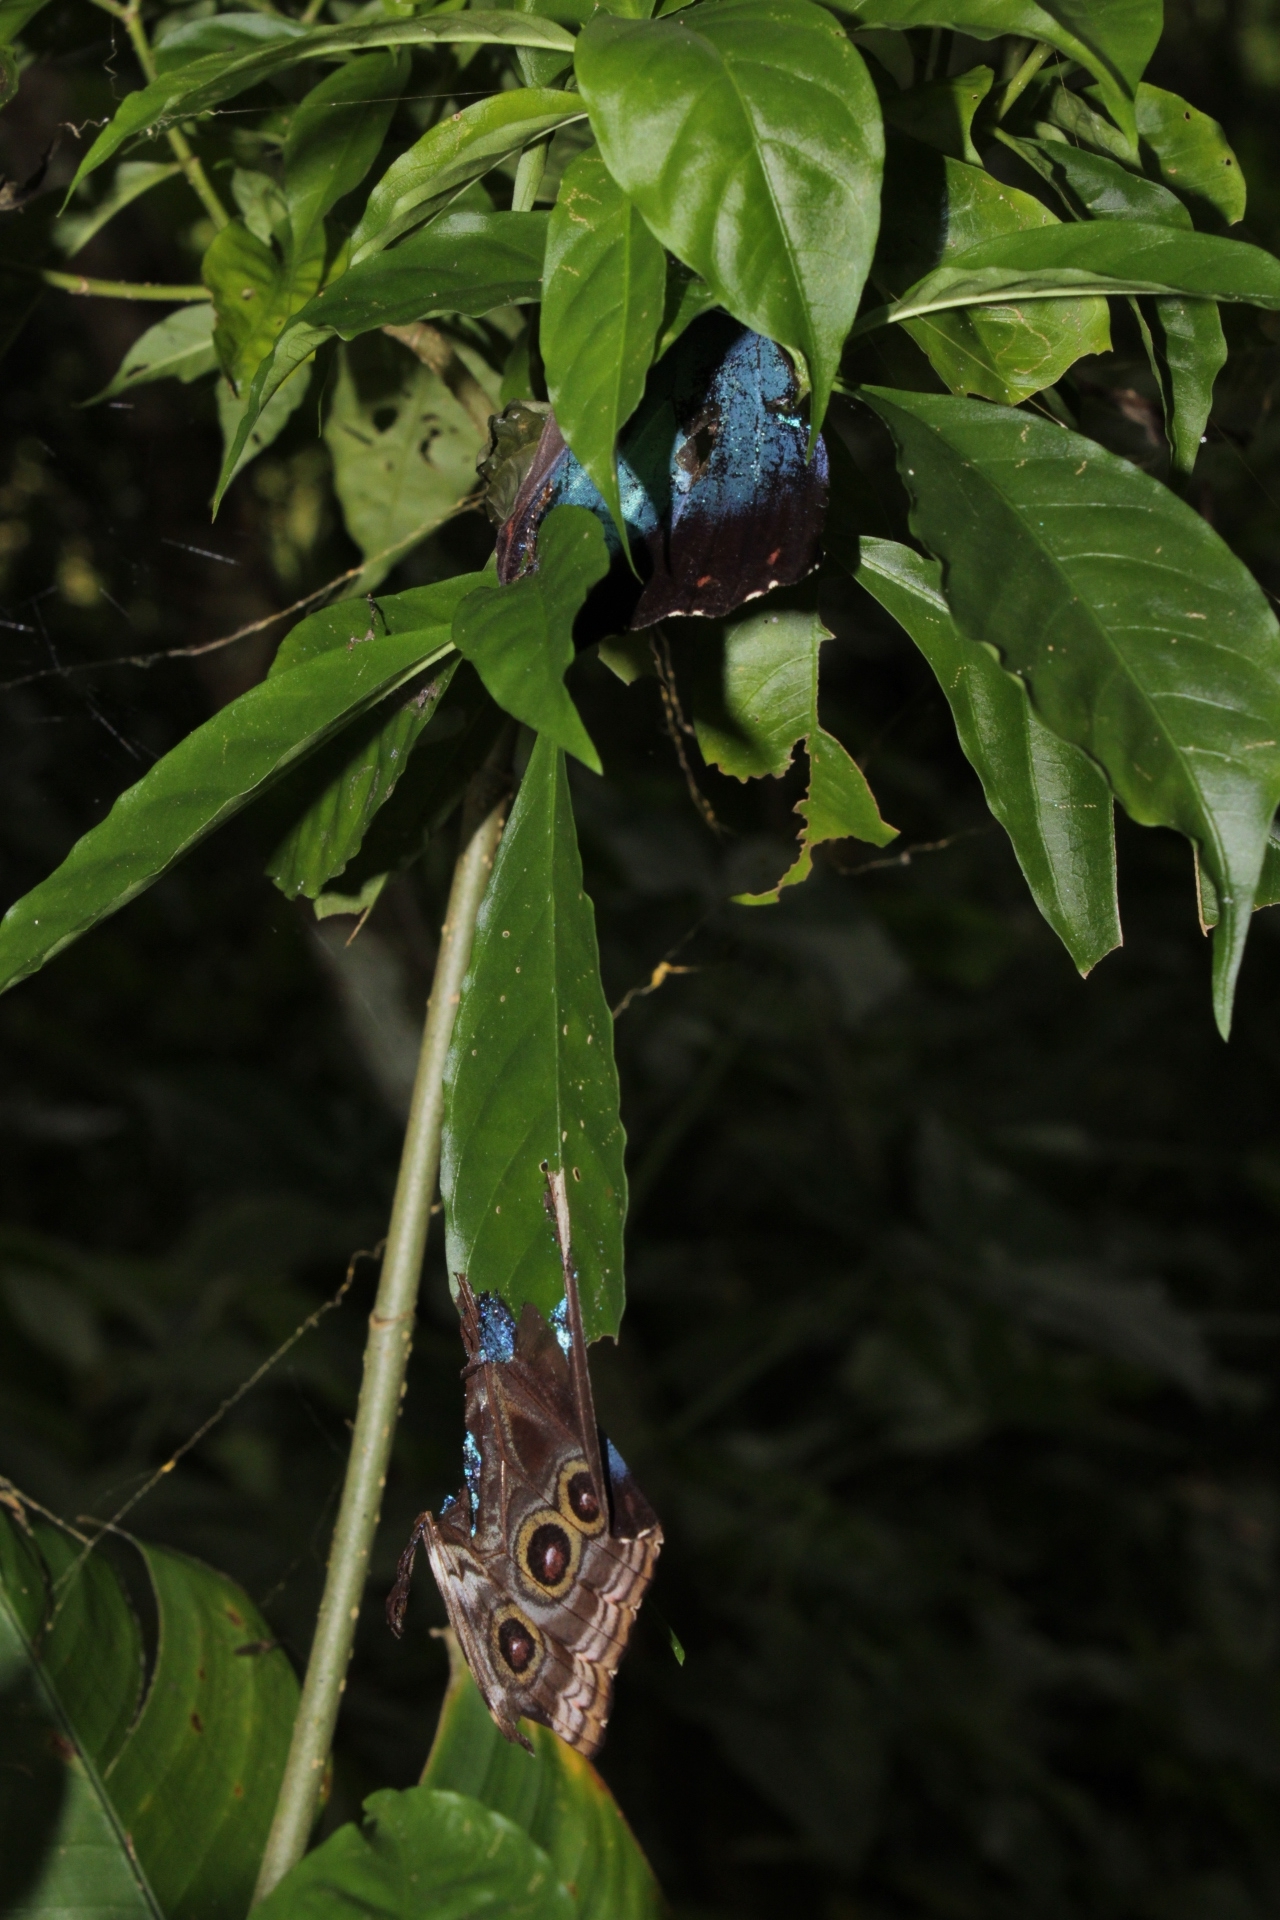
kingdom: Animalia
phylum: Arthropoda
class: Insecta
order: Lepidoptera
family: Nymphalidae
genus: Morpho
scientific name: Morpho helenor
